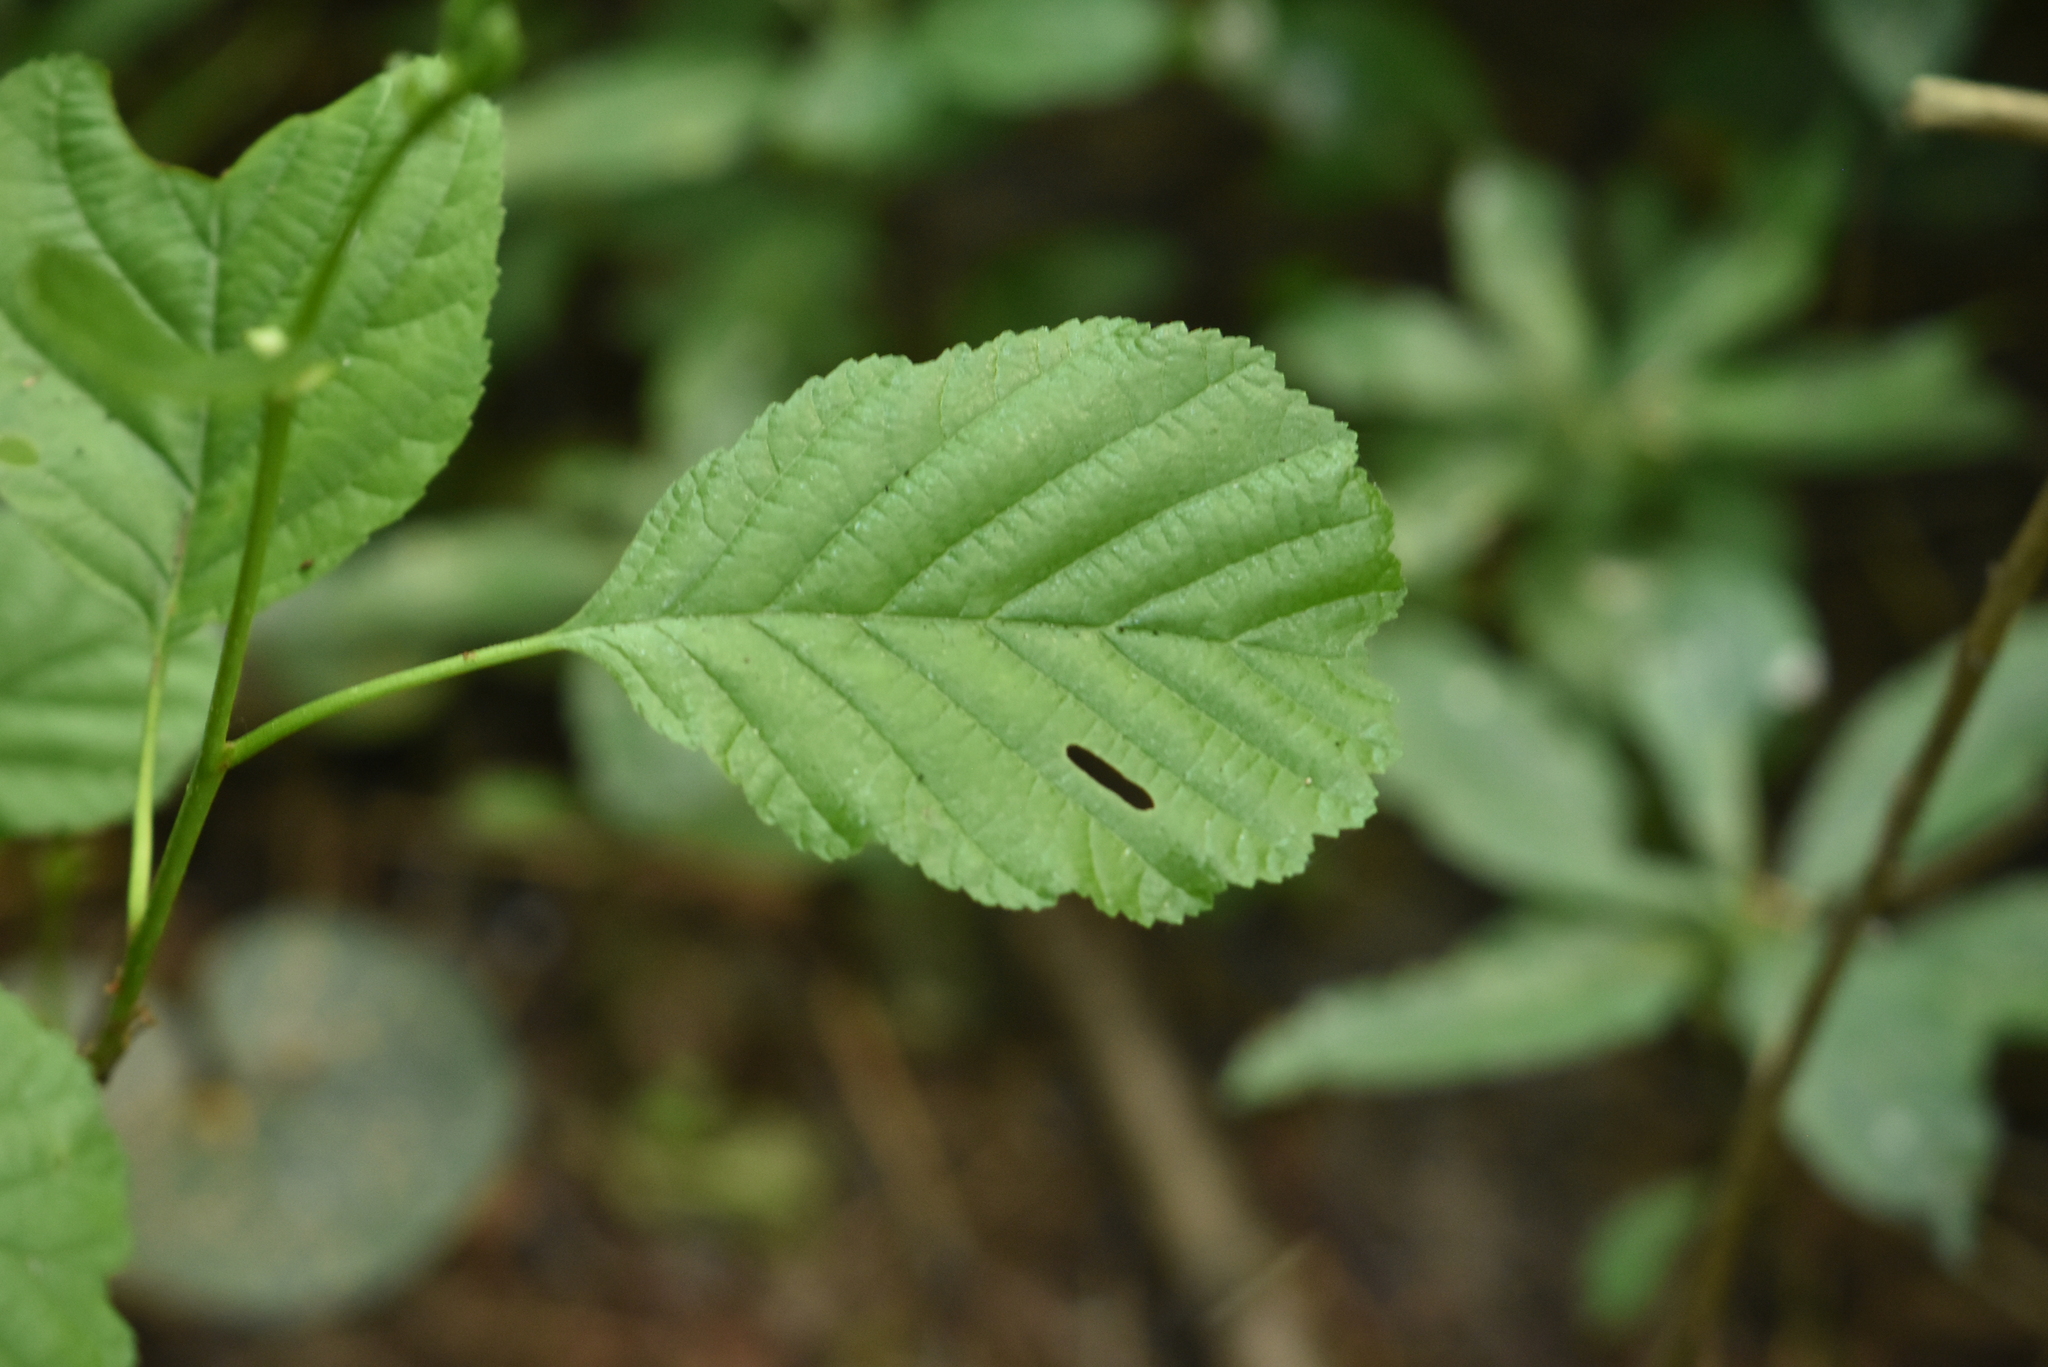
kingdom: Plantae
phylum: Tracheophyta
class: Magnoliopsida
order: Fagales
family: Betulaceae
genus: Alnus
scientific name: Alnus glutinosa
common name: Black alder
